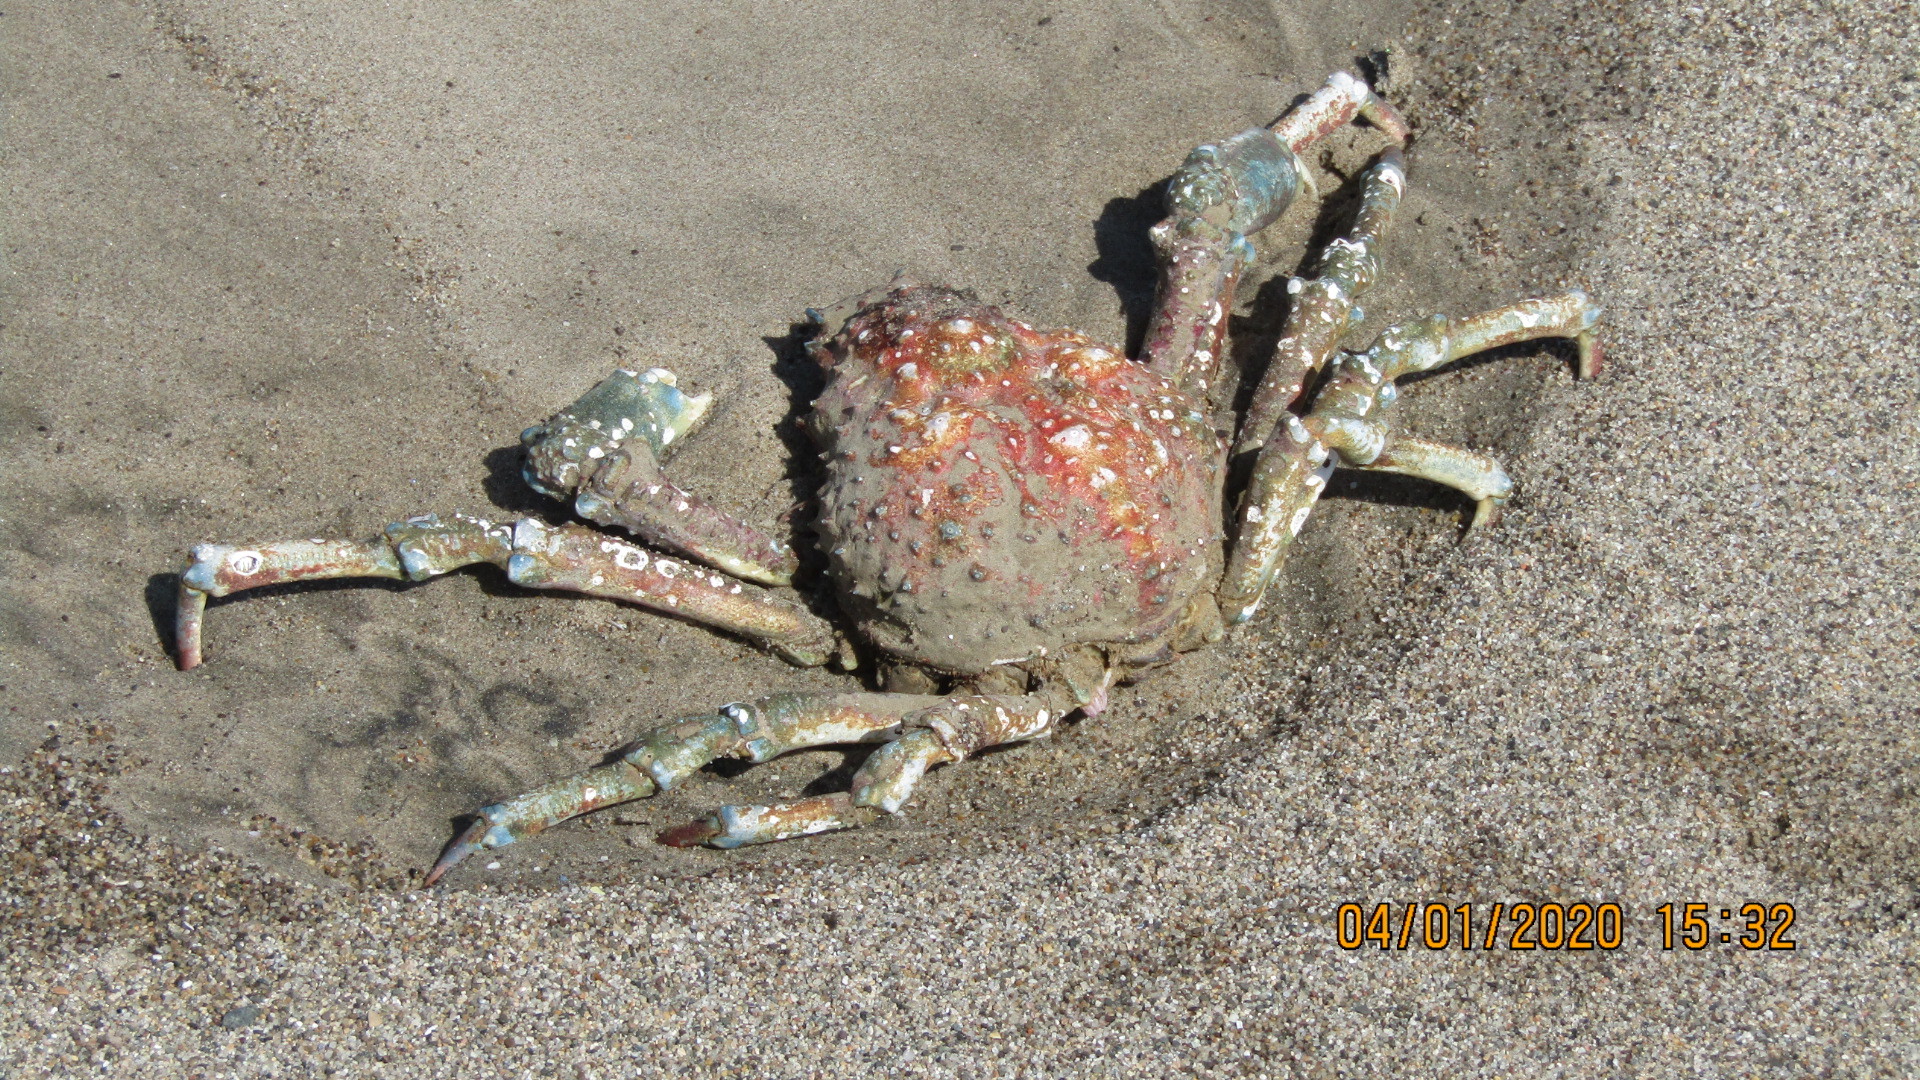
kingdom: Animalia
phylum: Arthropoda
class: Malacostraca
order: Decapoda
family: Epialtidae
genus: Loxorhynchus
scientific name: Loxorhynchus grandis
